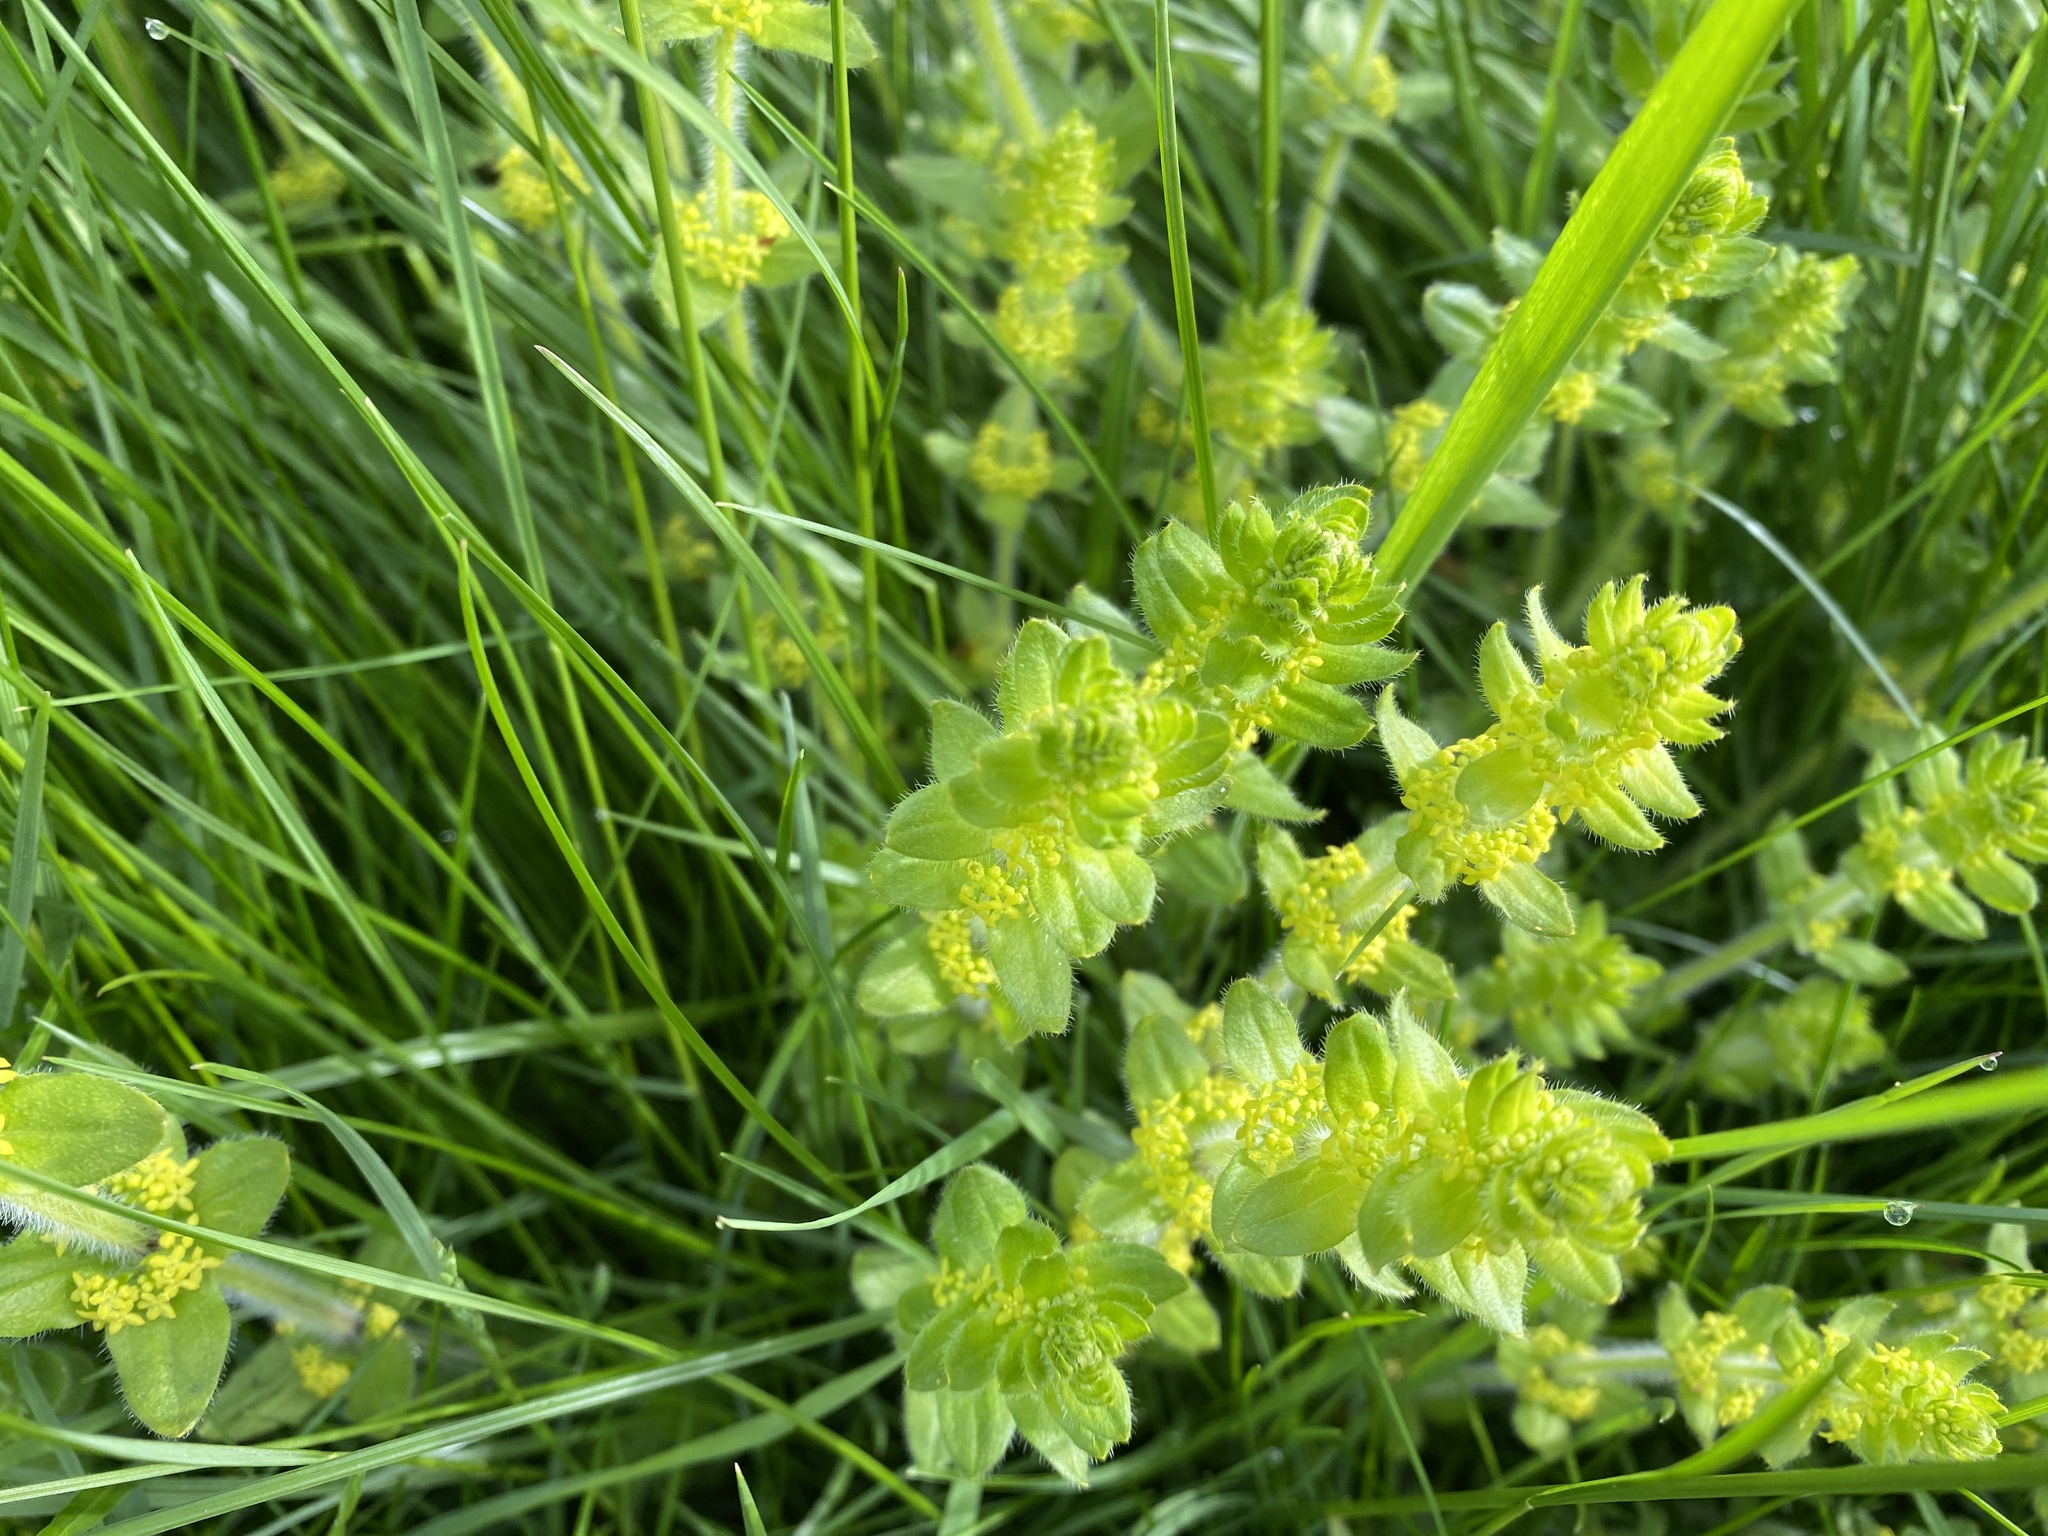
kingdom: Plantae
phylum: Tracheophyta
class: Magnoliopsida
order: Gentianales
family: Rubiaceae
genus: Cruciata
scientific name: Cruciata laevipes
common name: Crosswort
